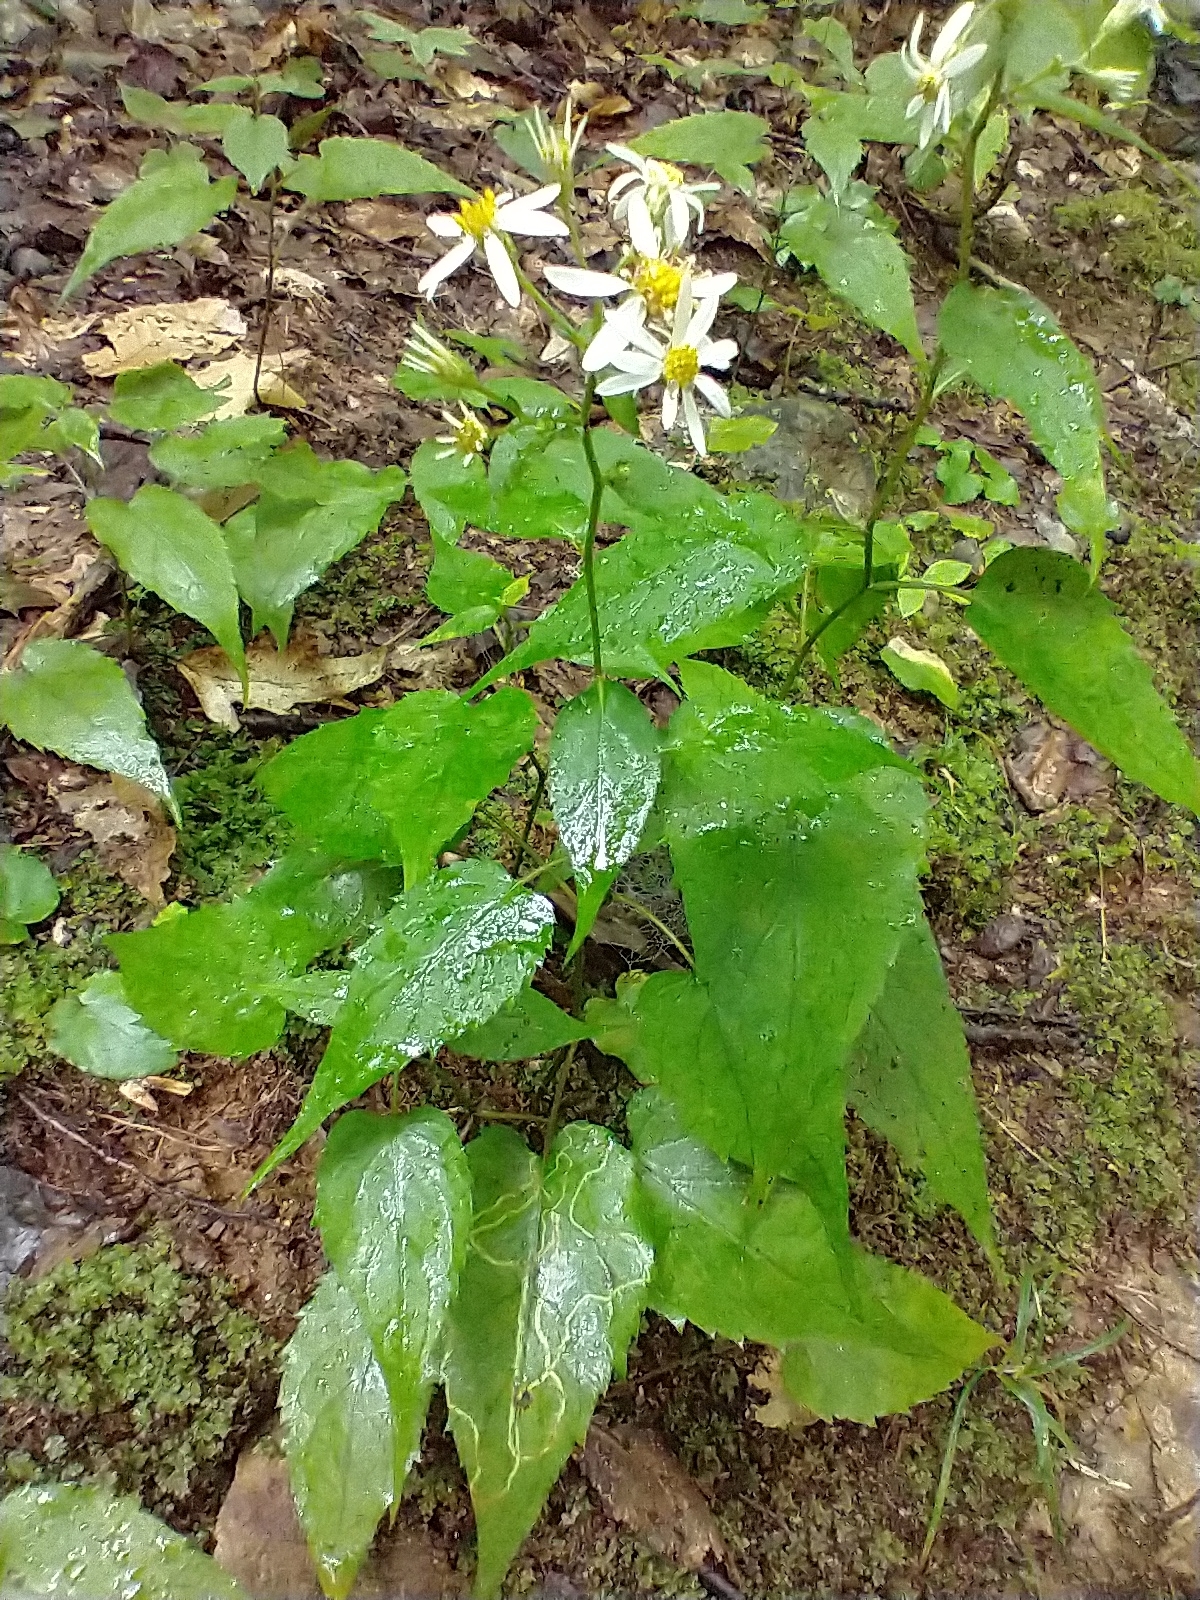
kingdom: Plantae
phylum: Tracheophyta
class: Magnoliopsida
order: Asterales
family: Asteraceae
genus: Eurybia
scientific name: Eurybia divaricata
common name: White wood aster
